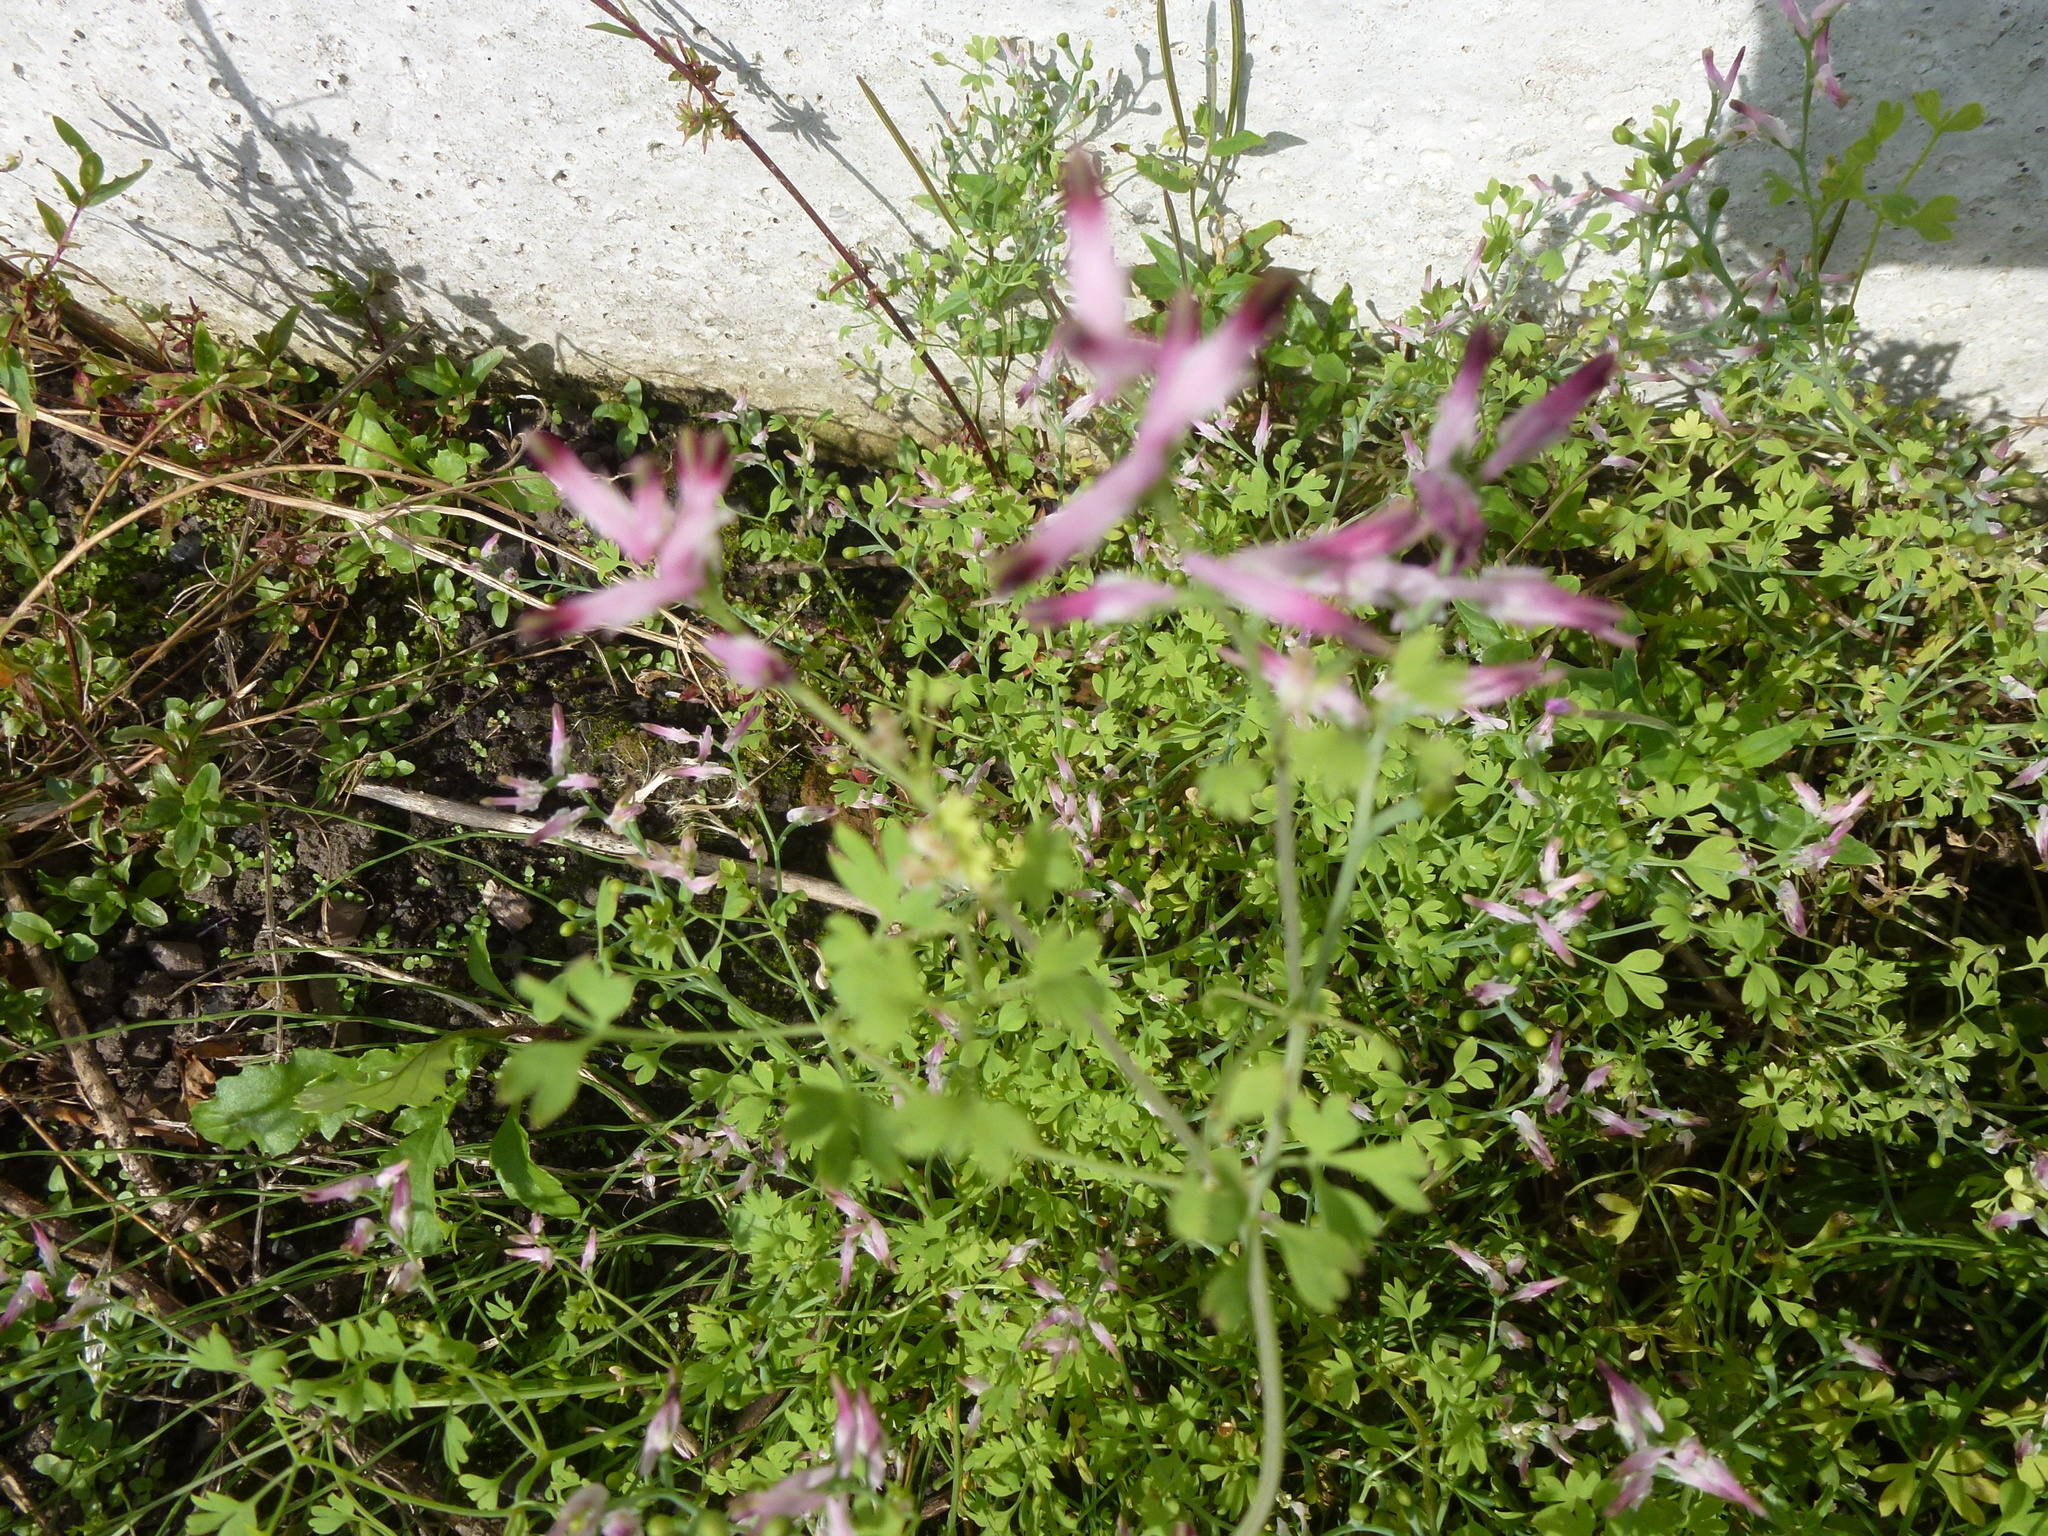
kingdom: Plantae
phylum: Tracheophyta
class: Magnoliopsida
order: Ranunculales
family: Papaveraceae
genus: Fumaria
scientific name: Fumaria bastardii
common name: Tall ramping-fumitory
